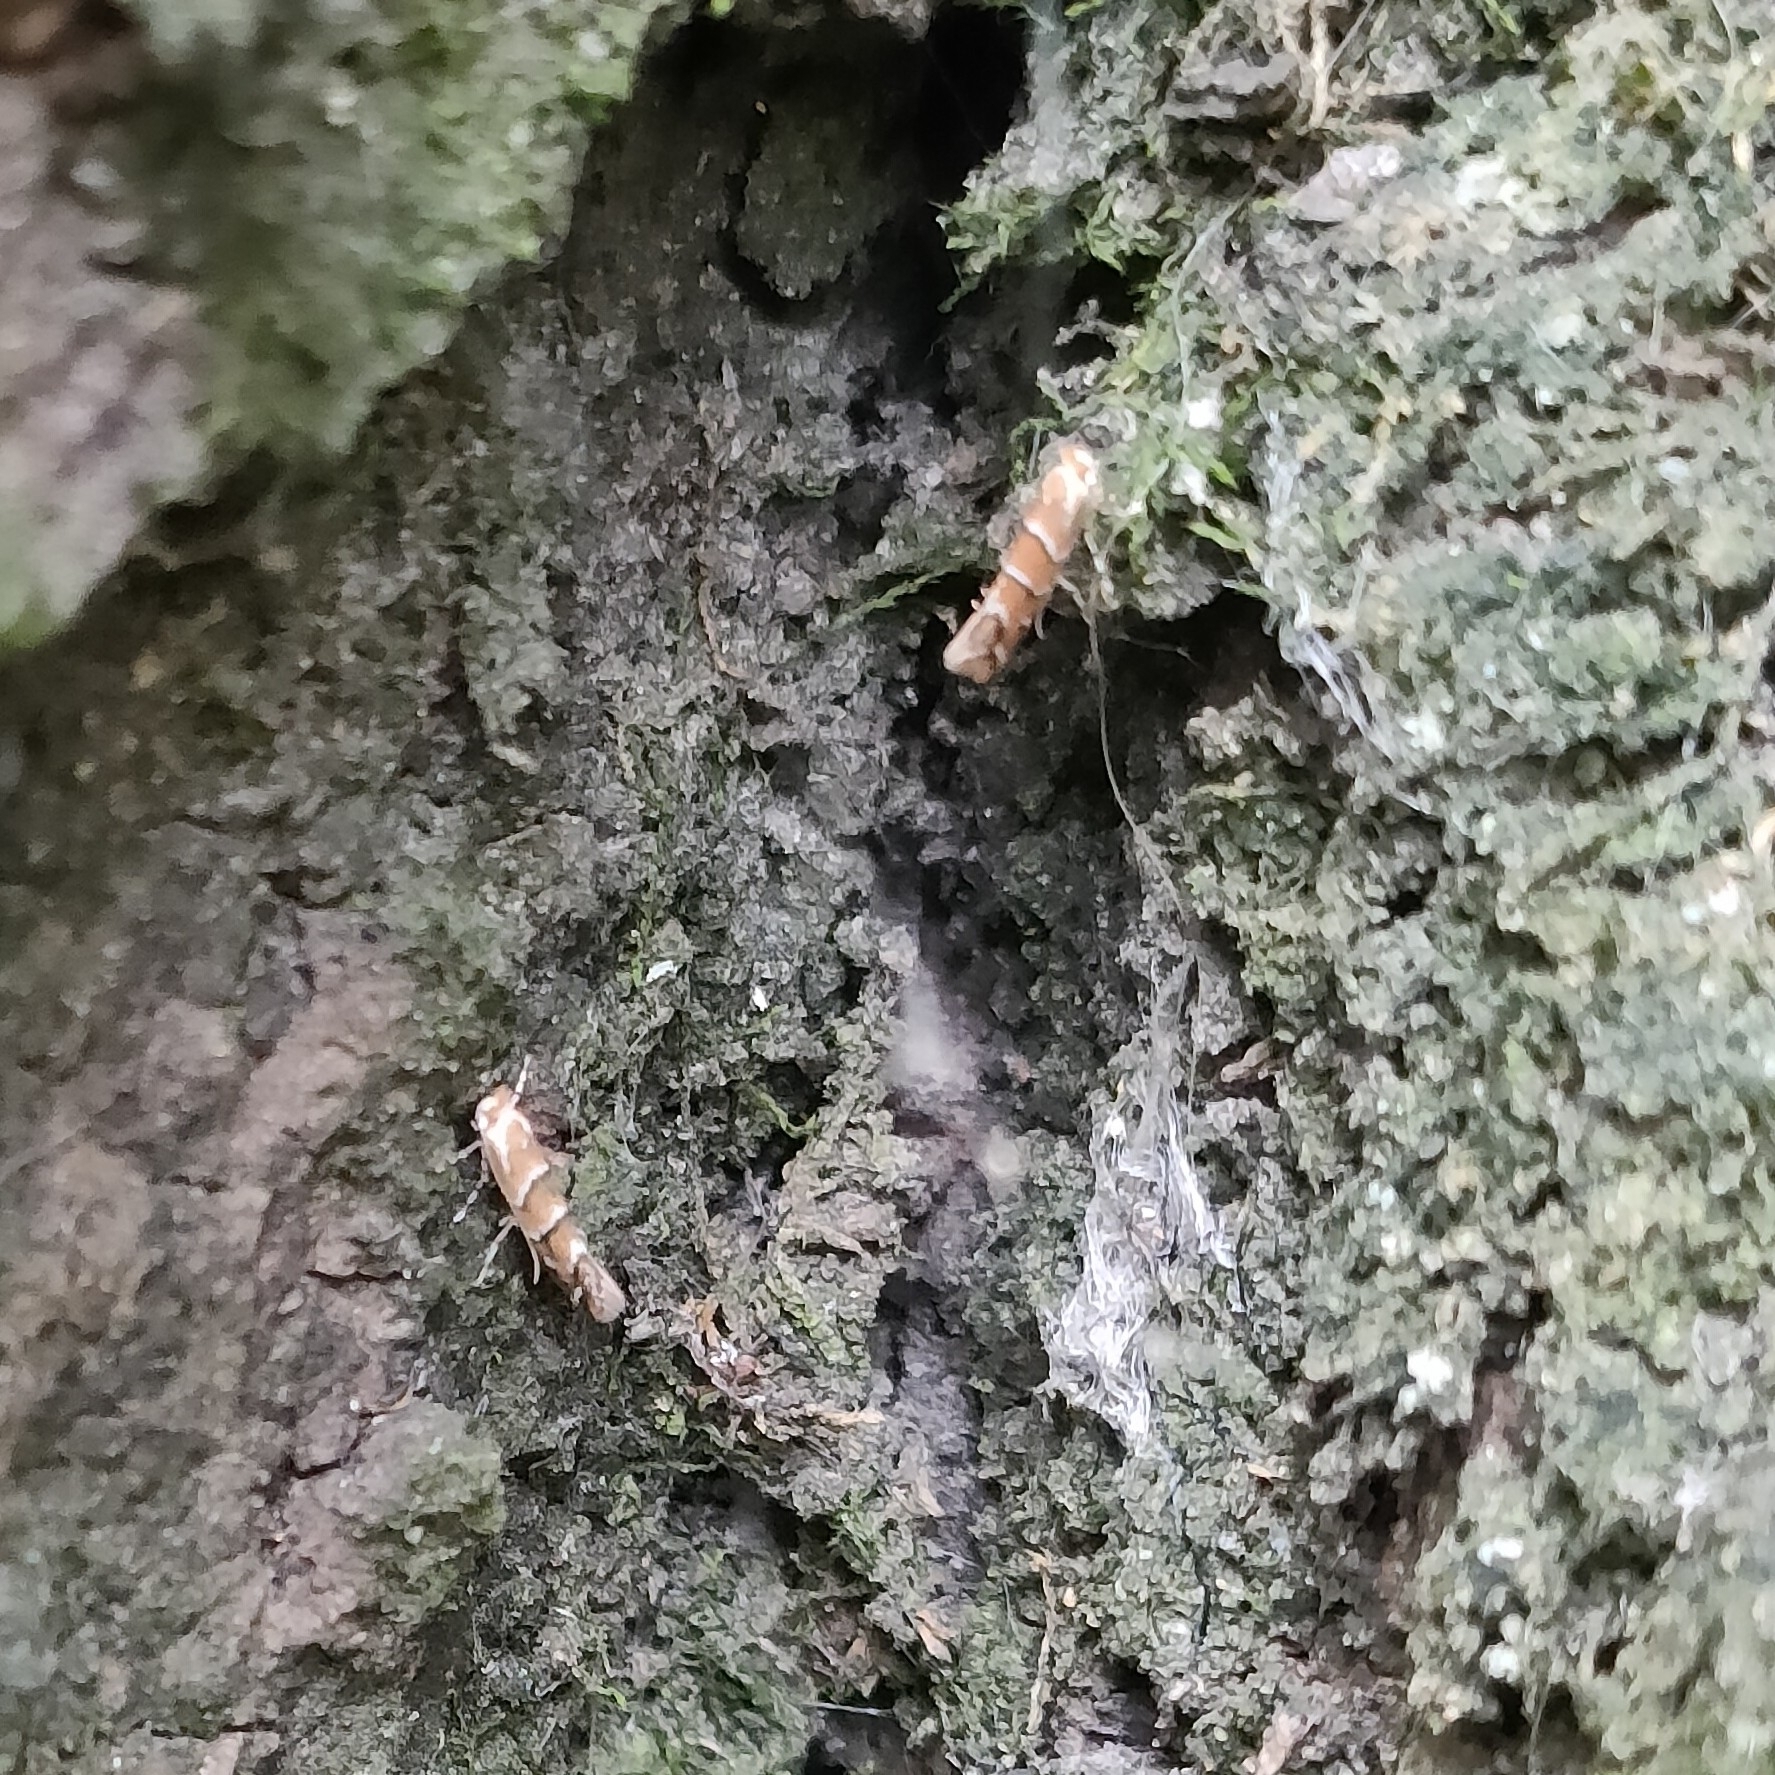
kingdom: Animalia
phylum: Arthropoda
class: Insecta
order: Lepidoptera
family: Gracillariidae
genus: Cameraria
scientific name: Cameraria ohridella
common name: Horse-chestnut leaf-miner
